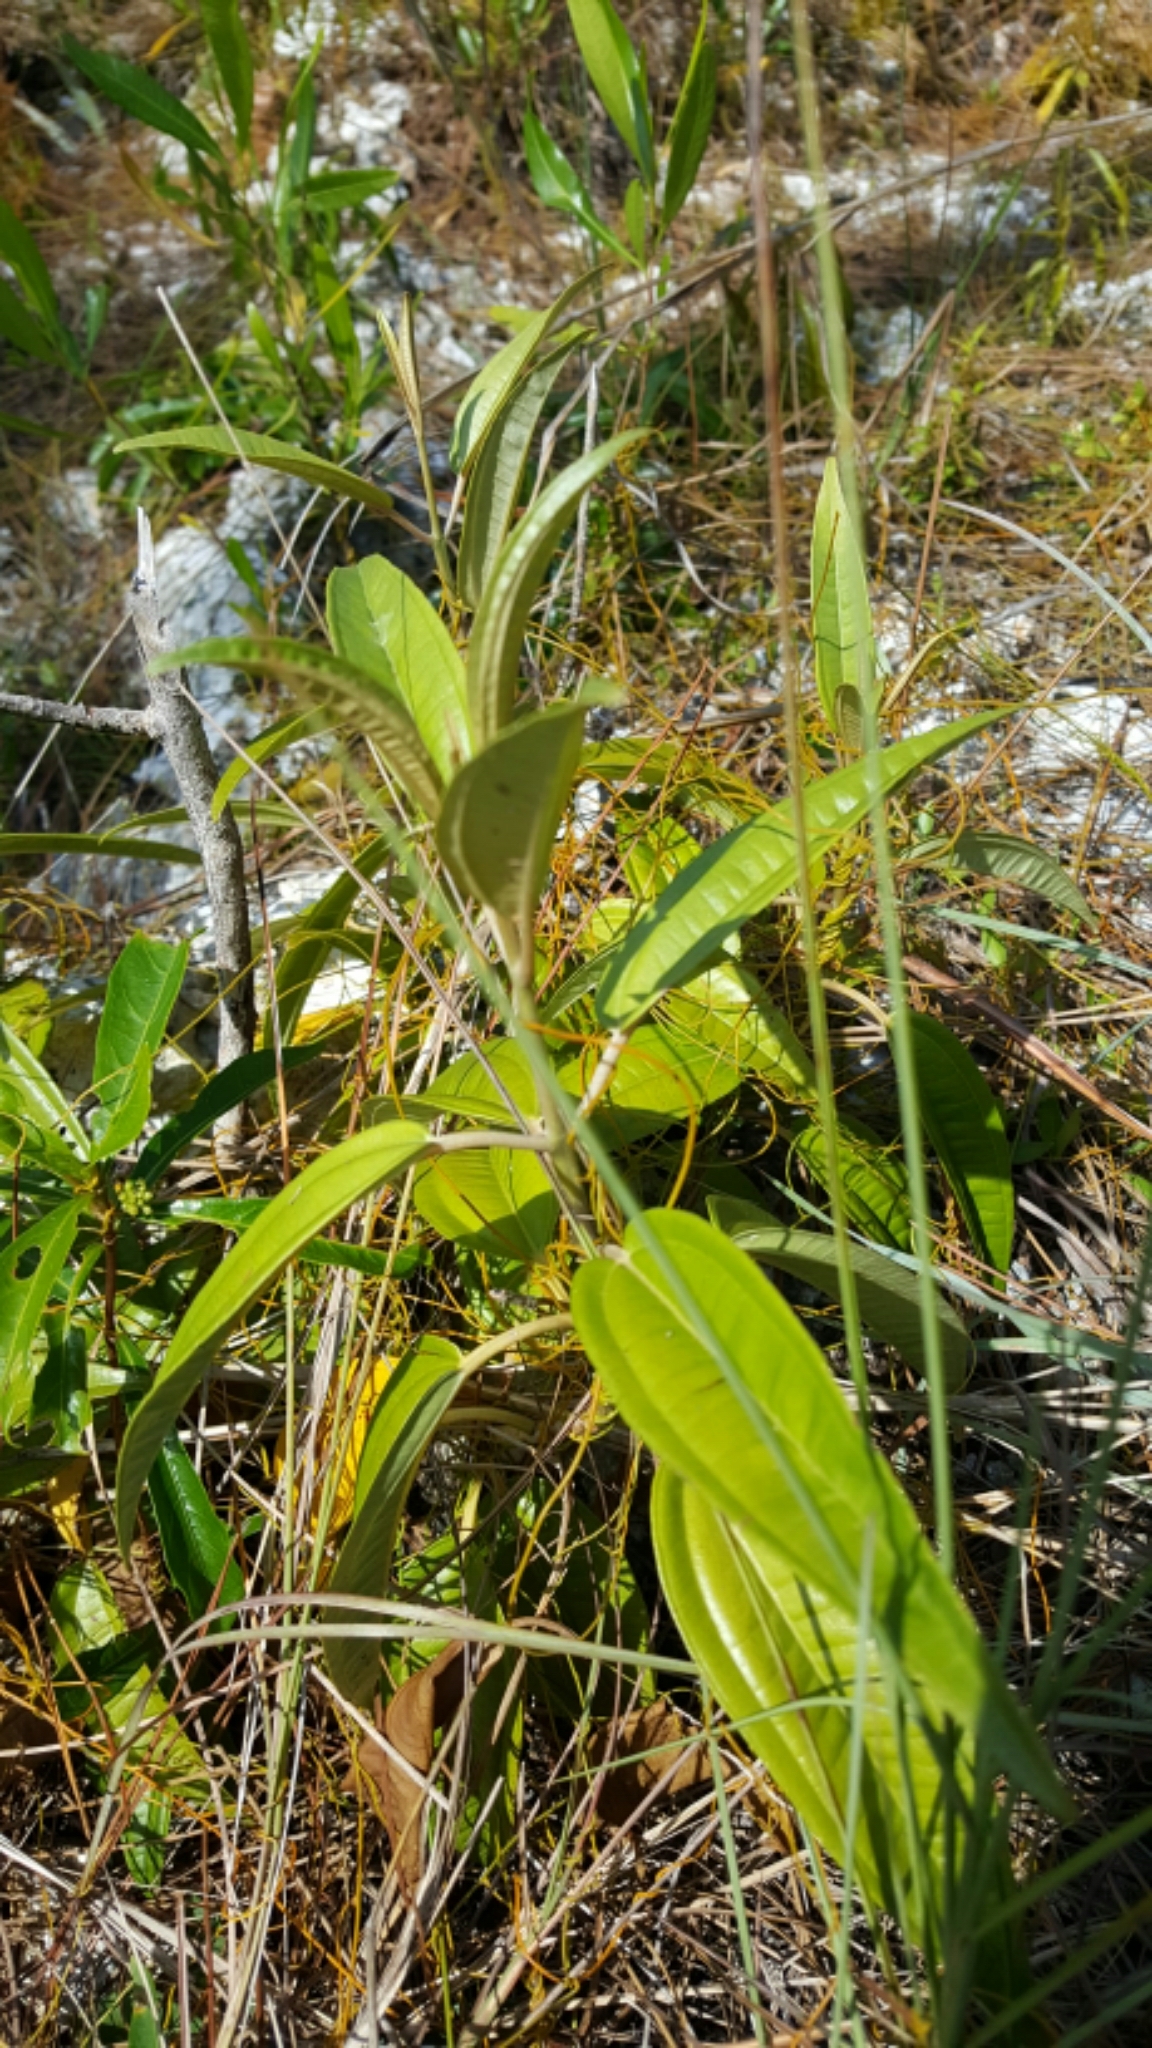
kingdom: Plantae
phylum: Tracheophyta
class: Magnoliopsida
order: Myrtales
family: Melastomataceae
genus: Miconia
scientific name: Miconia bicolor
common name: Johnnyberry
